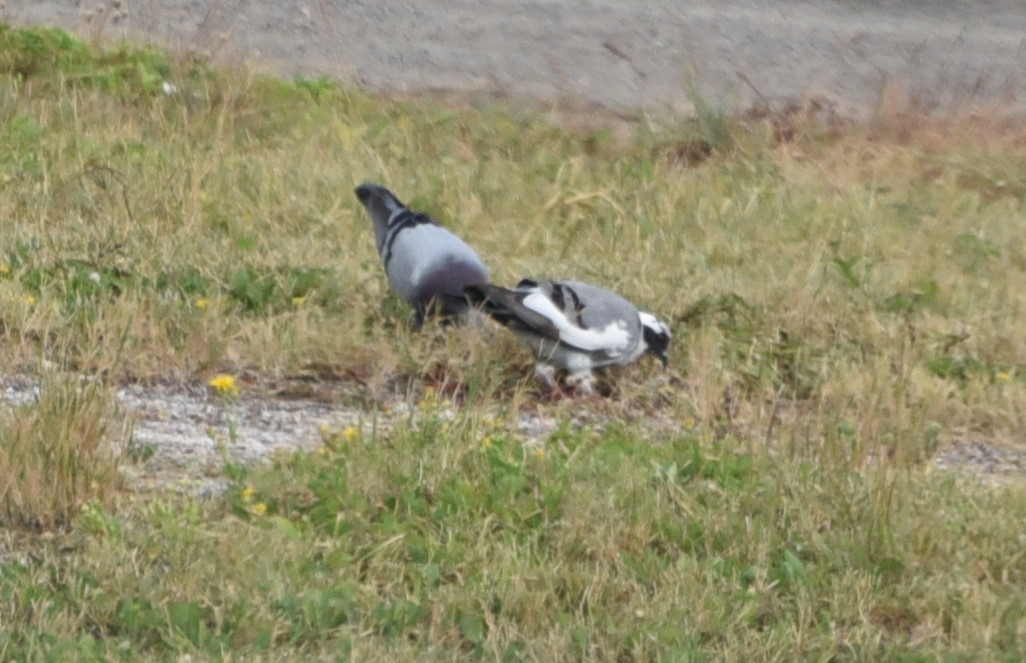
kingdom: Animalia
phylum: Chordata
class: Aves
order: Columbiformes
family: Columbidae
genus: Columba
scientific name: Columba livia
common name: Rock pigeon
